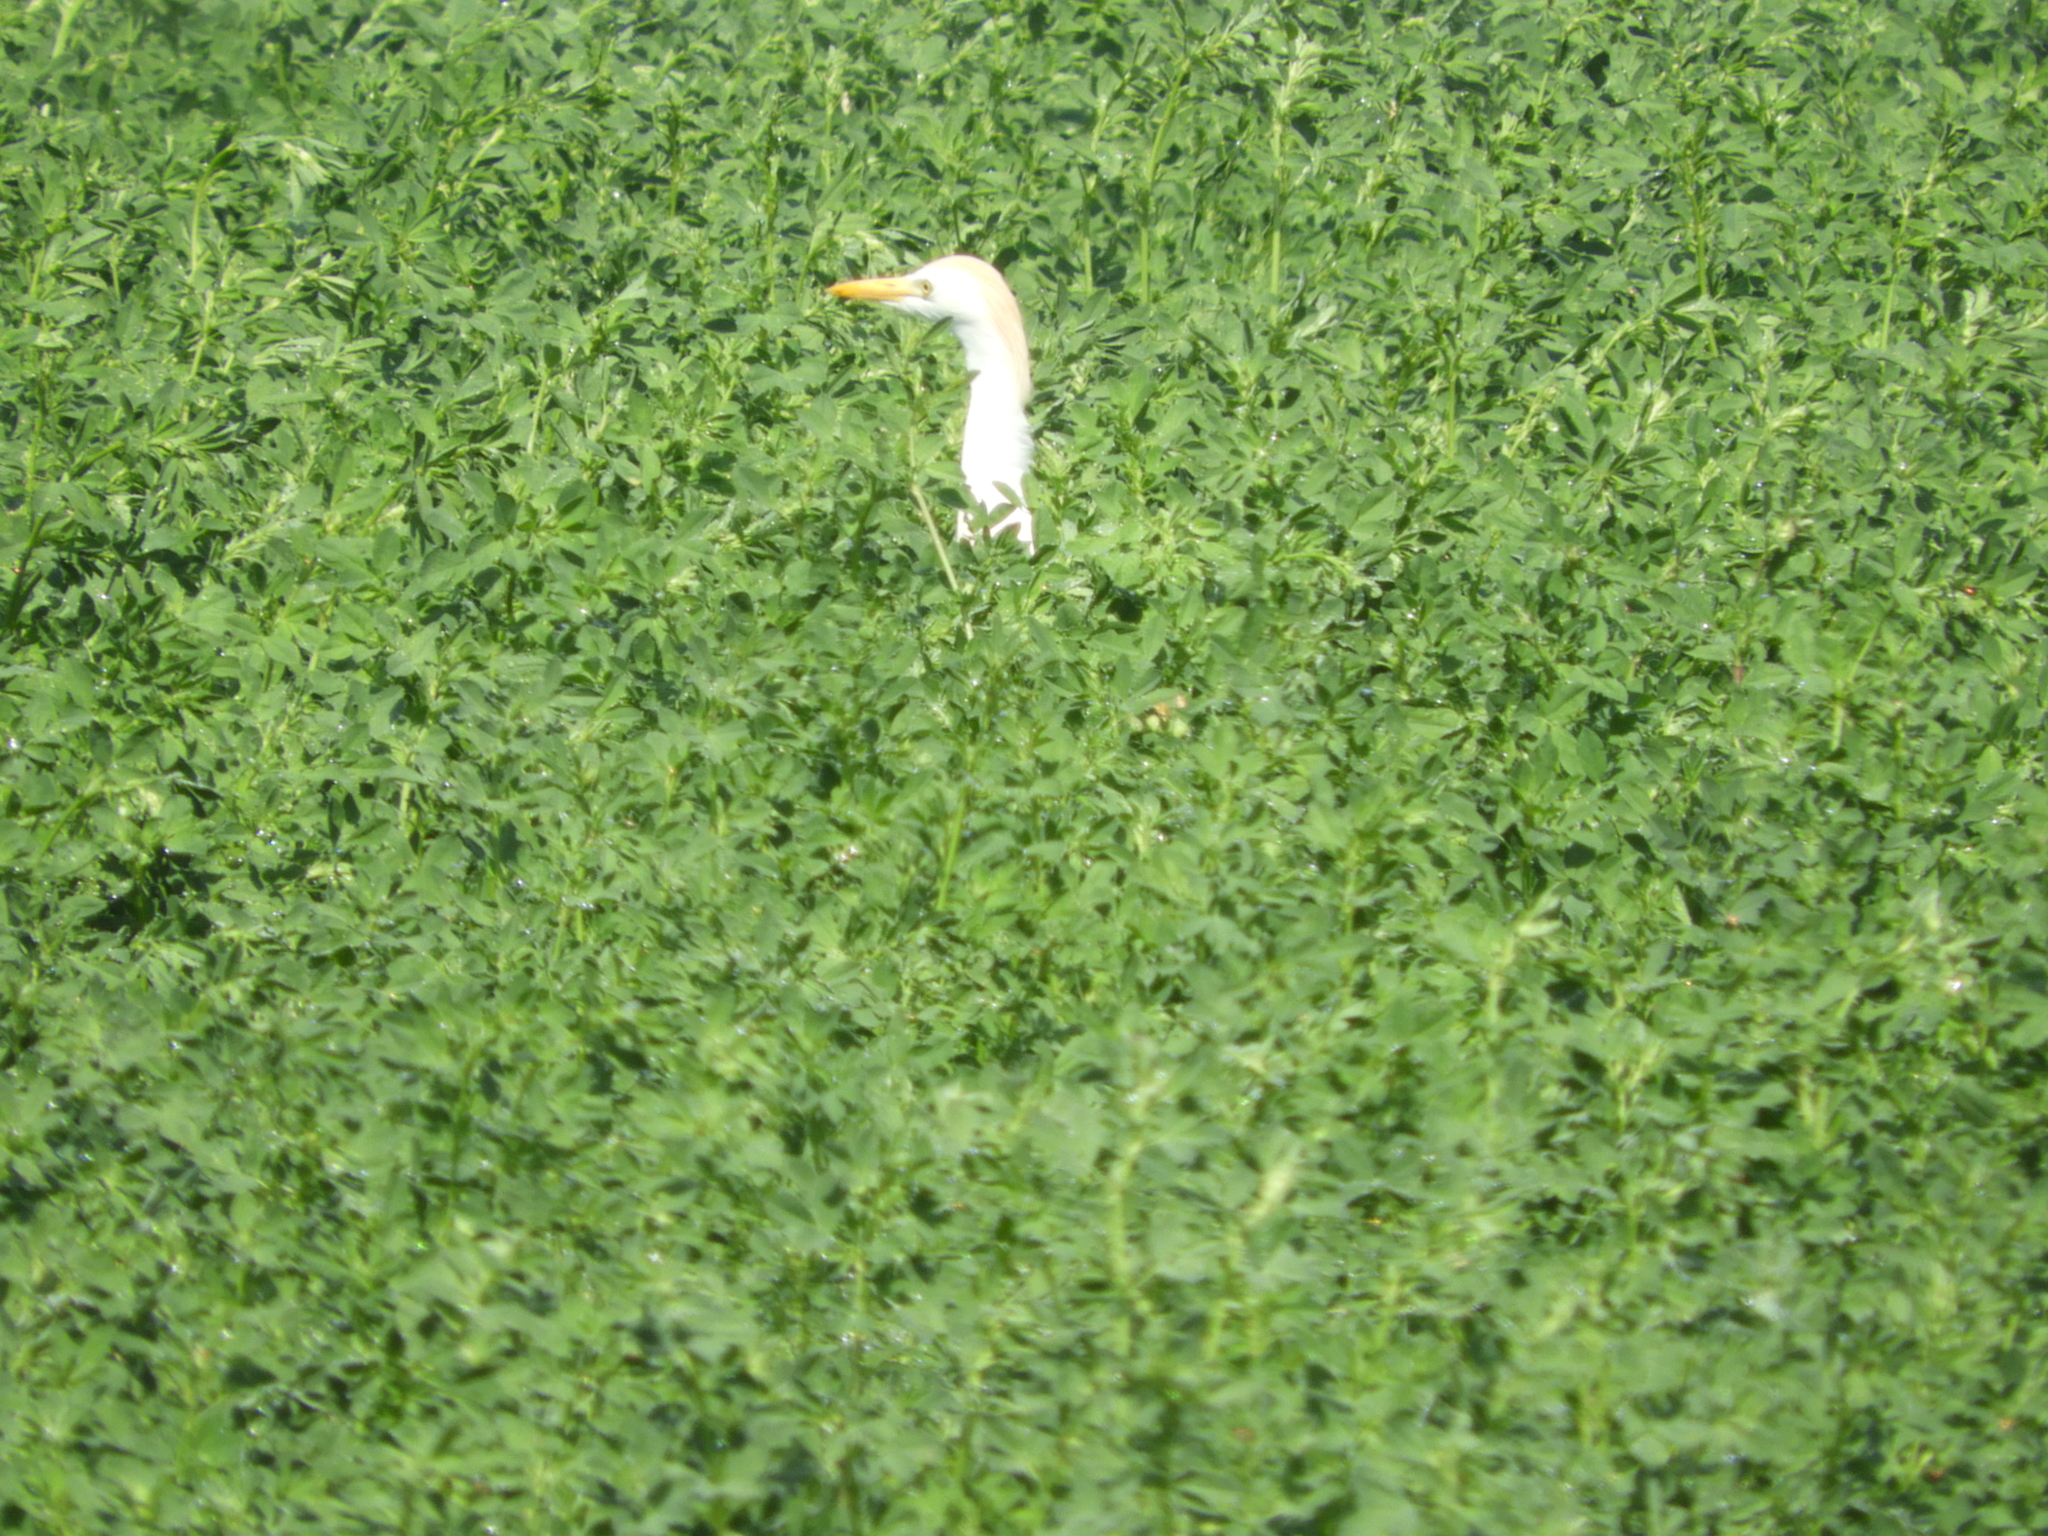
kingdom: Animalia
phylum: Chordata
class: Aves
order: Pelecaniformes
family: Ardeidae
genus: Bubulcus
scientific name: Bubulcus ibis
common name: Cattle egret
